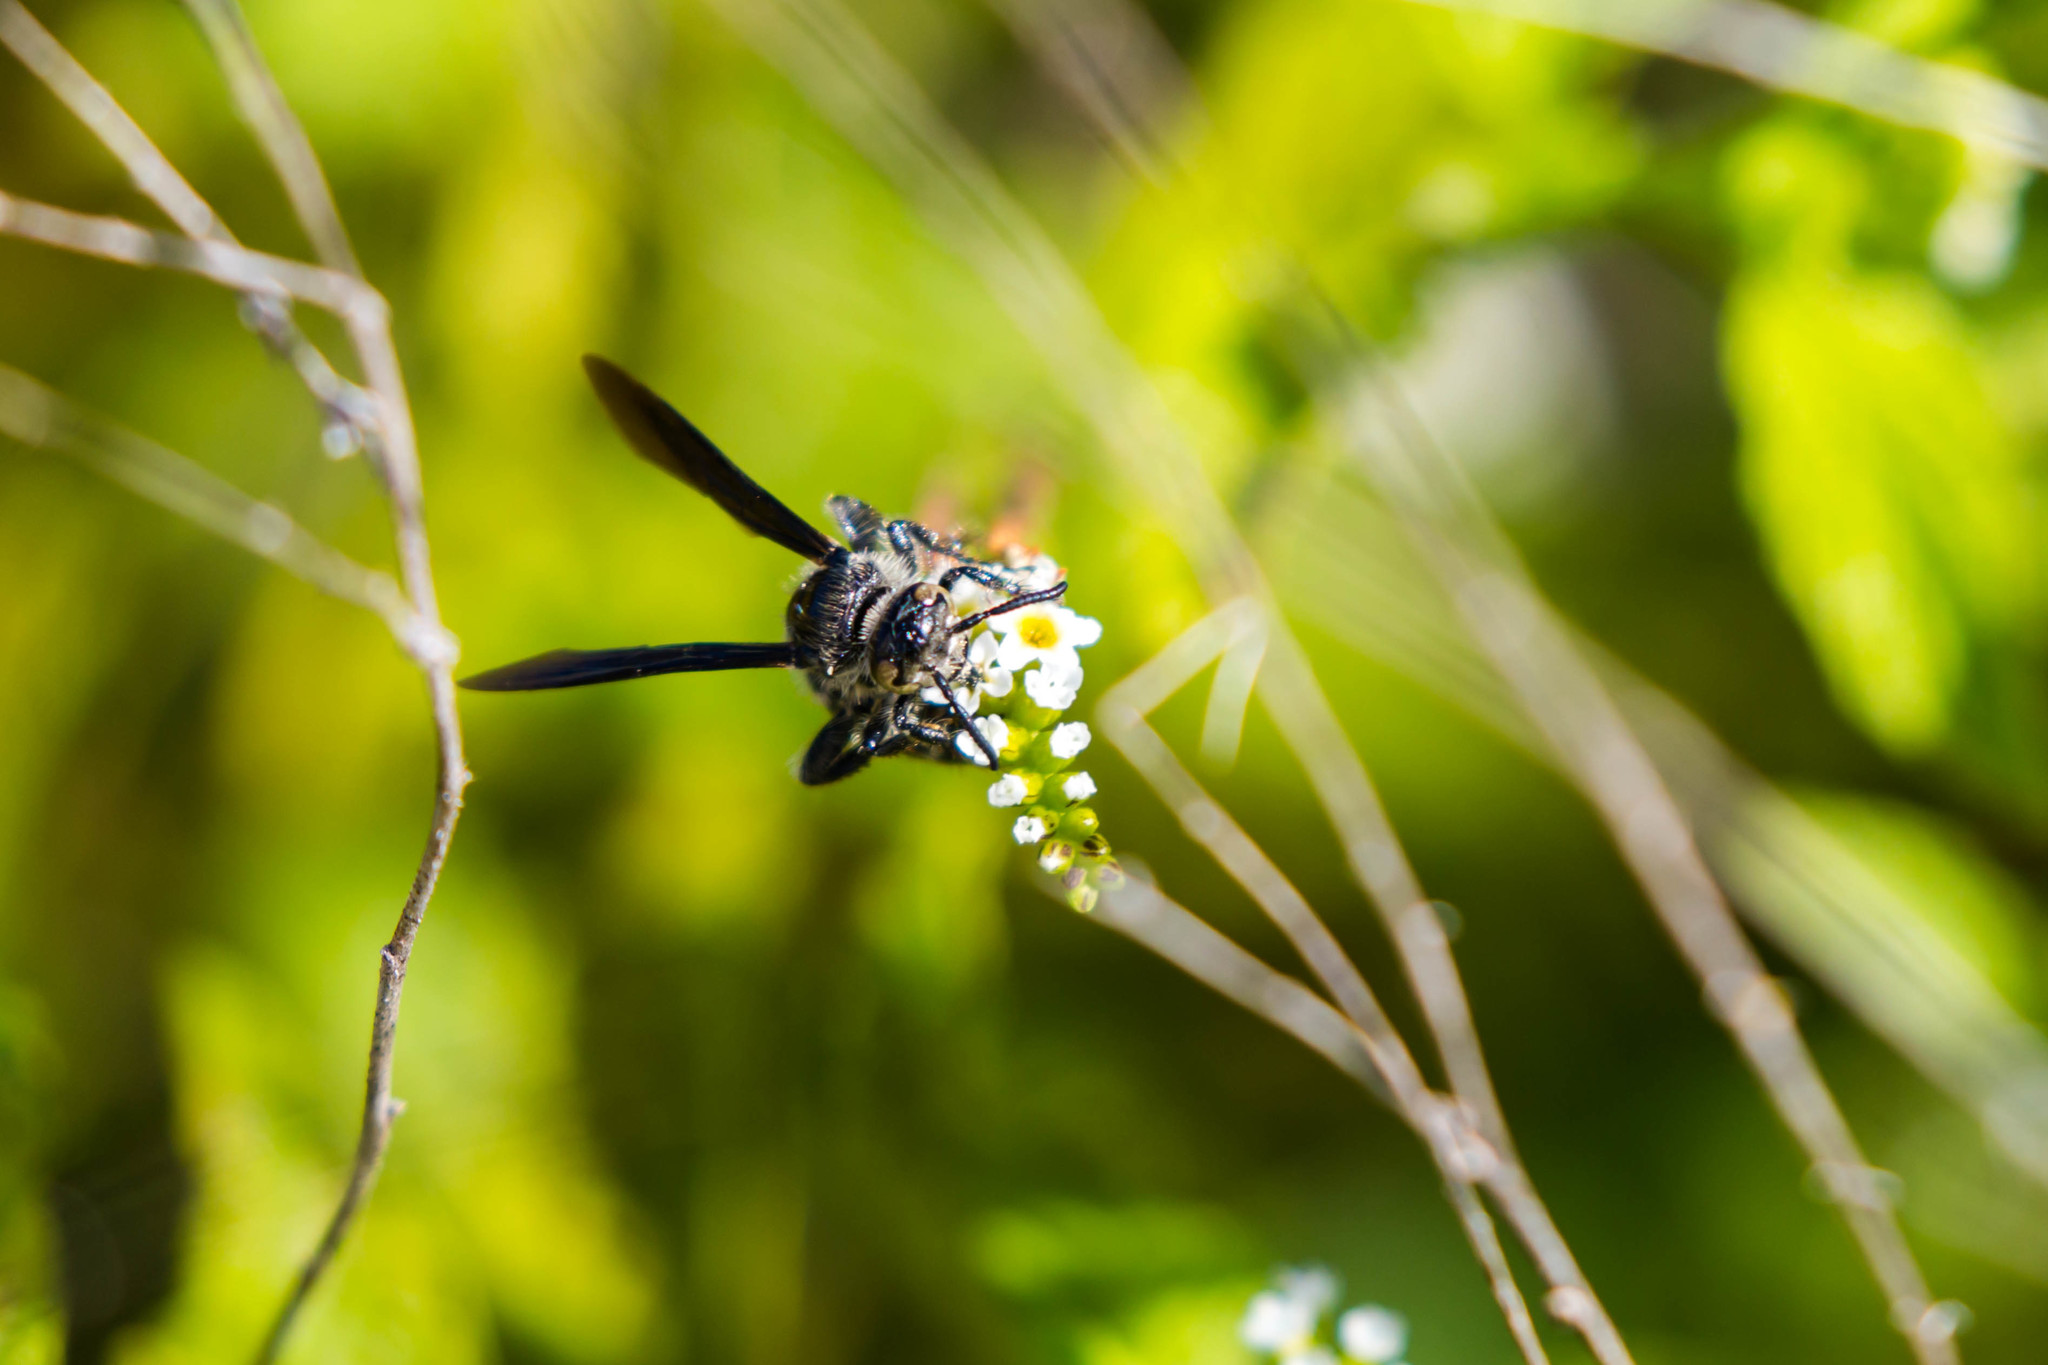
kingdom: Animalia
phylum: Arthropoda
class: Insecta
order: Hymenoptera
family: Scoliidae
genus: Dielis
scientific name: Dielis dorsata
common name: Scoliid wasp
